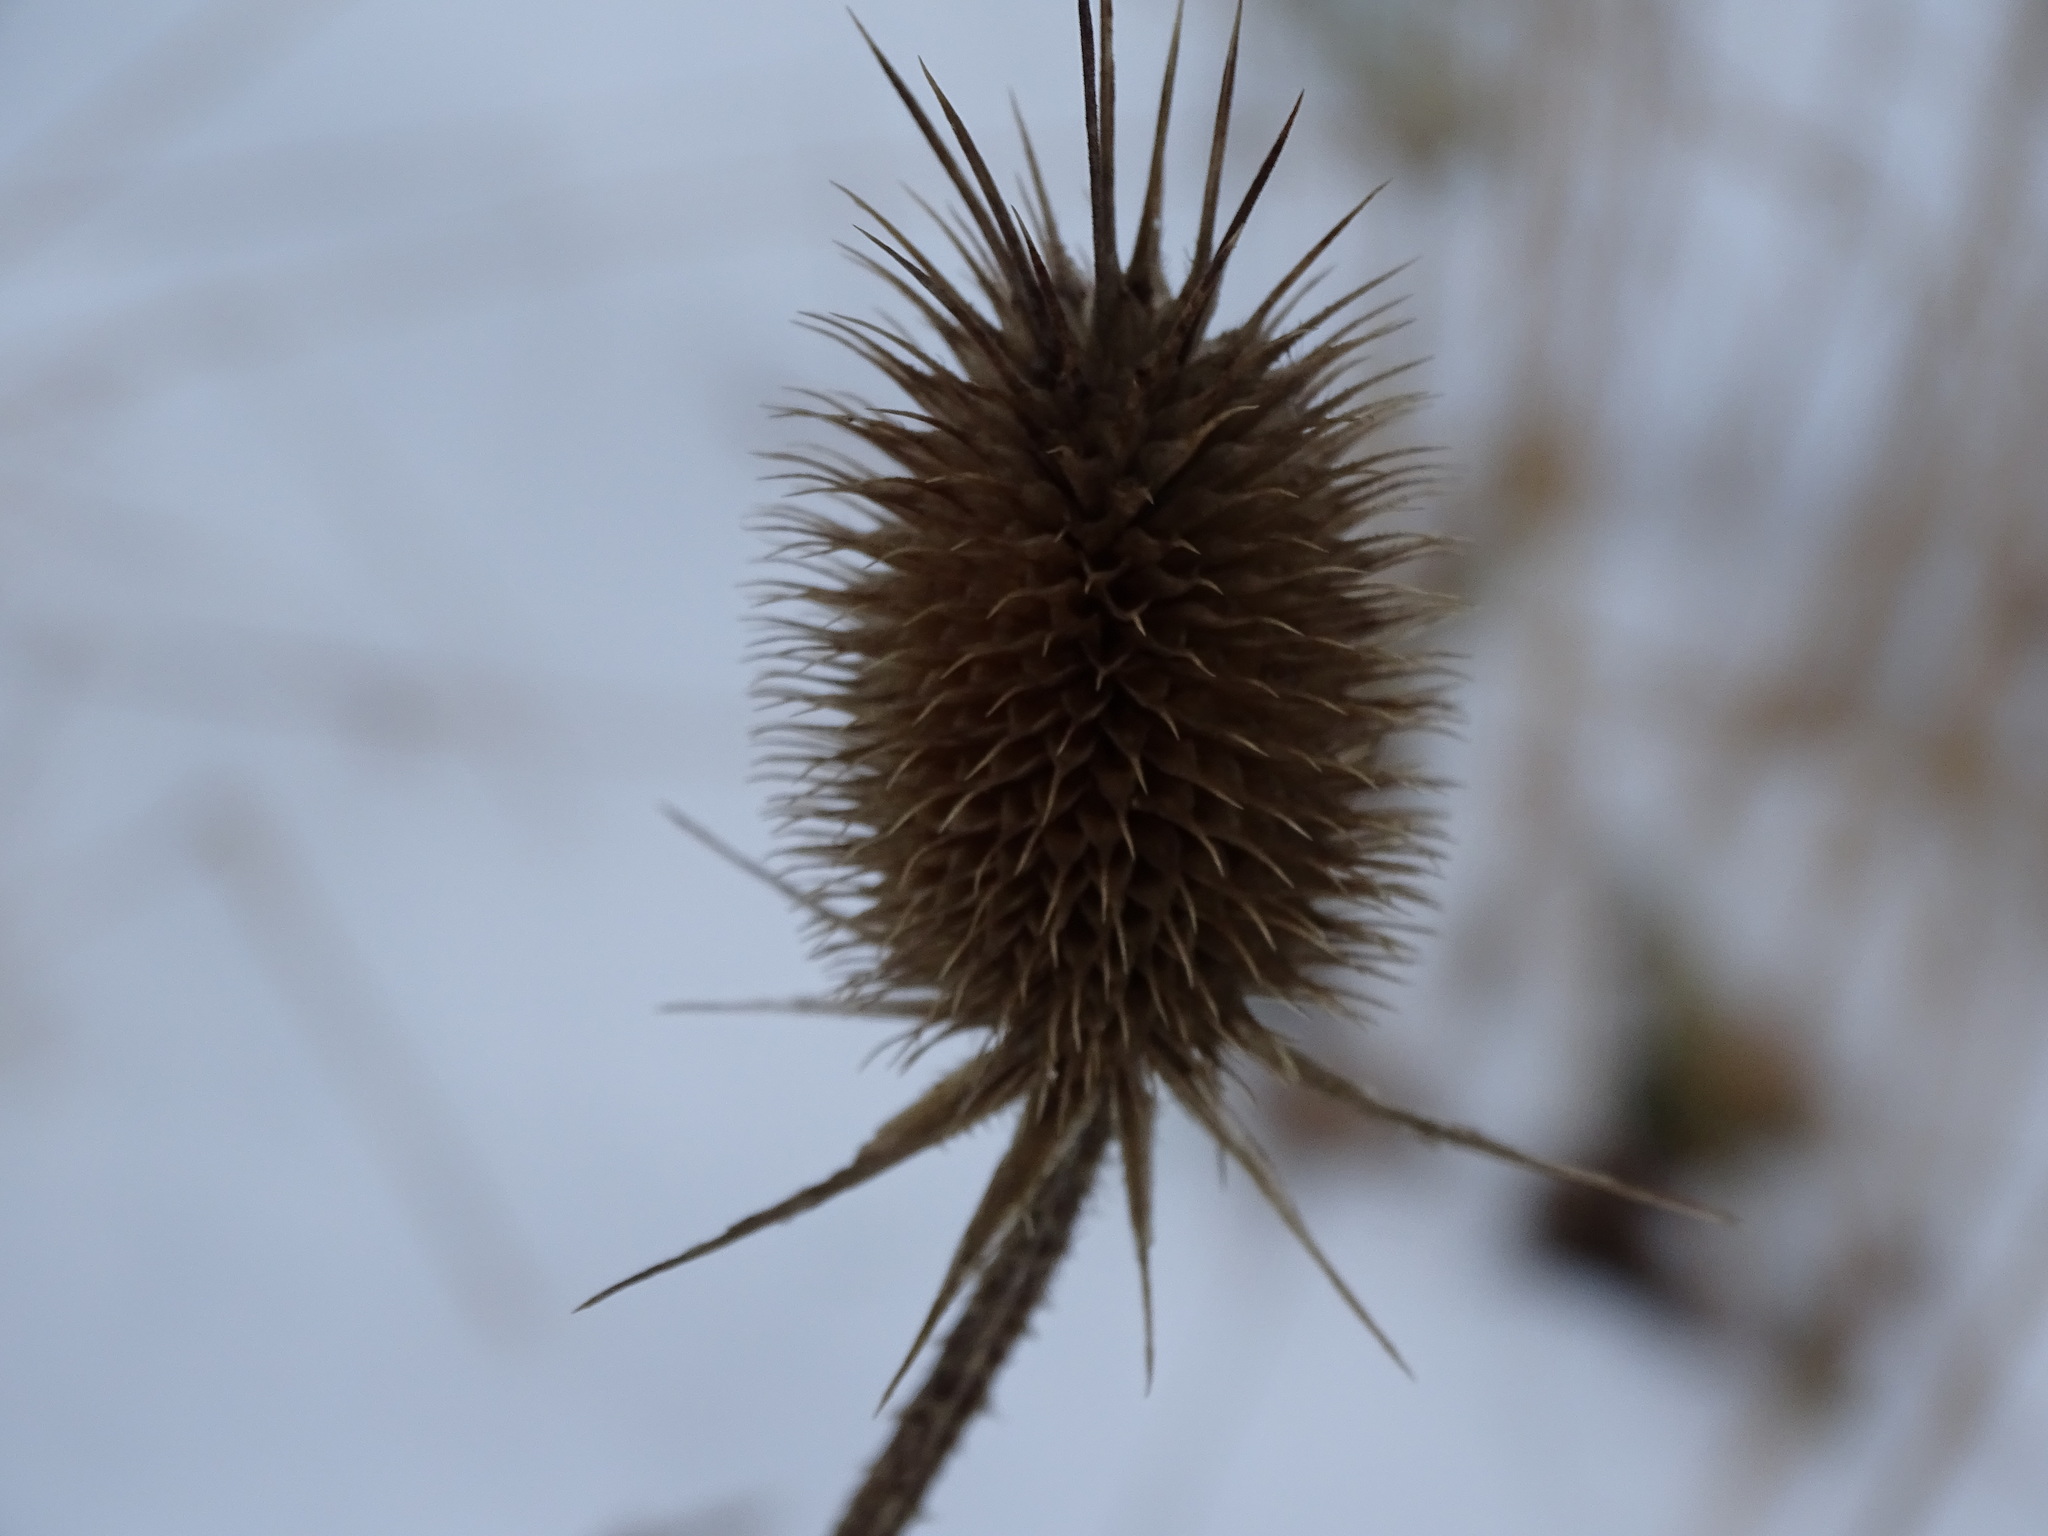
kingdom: Plantae
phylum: Tracheophyta
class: Magnoliopsida
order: Dipsacales
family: Caprifoliaceae
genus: Dipsacus
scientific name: Dipsacus laciniatus
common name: Cut-leaved teasel
